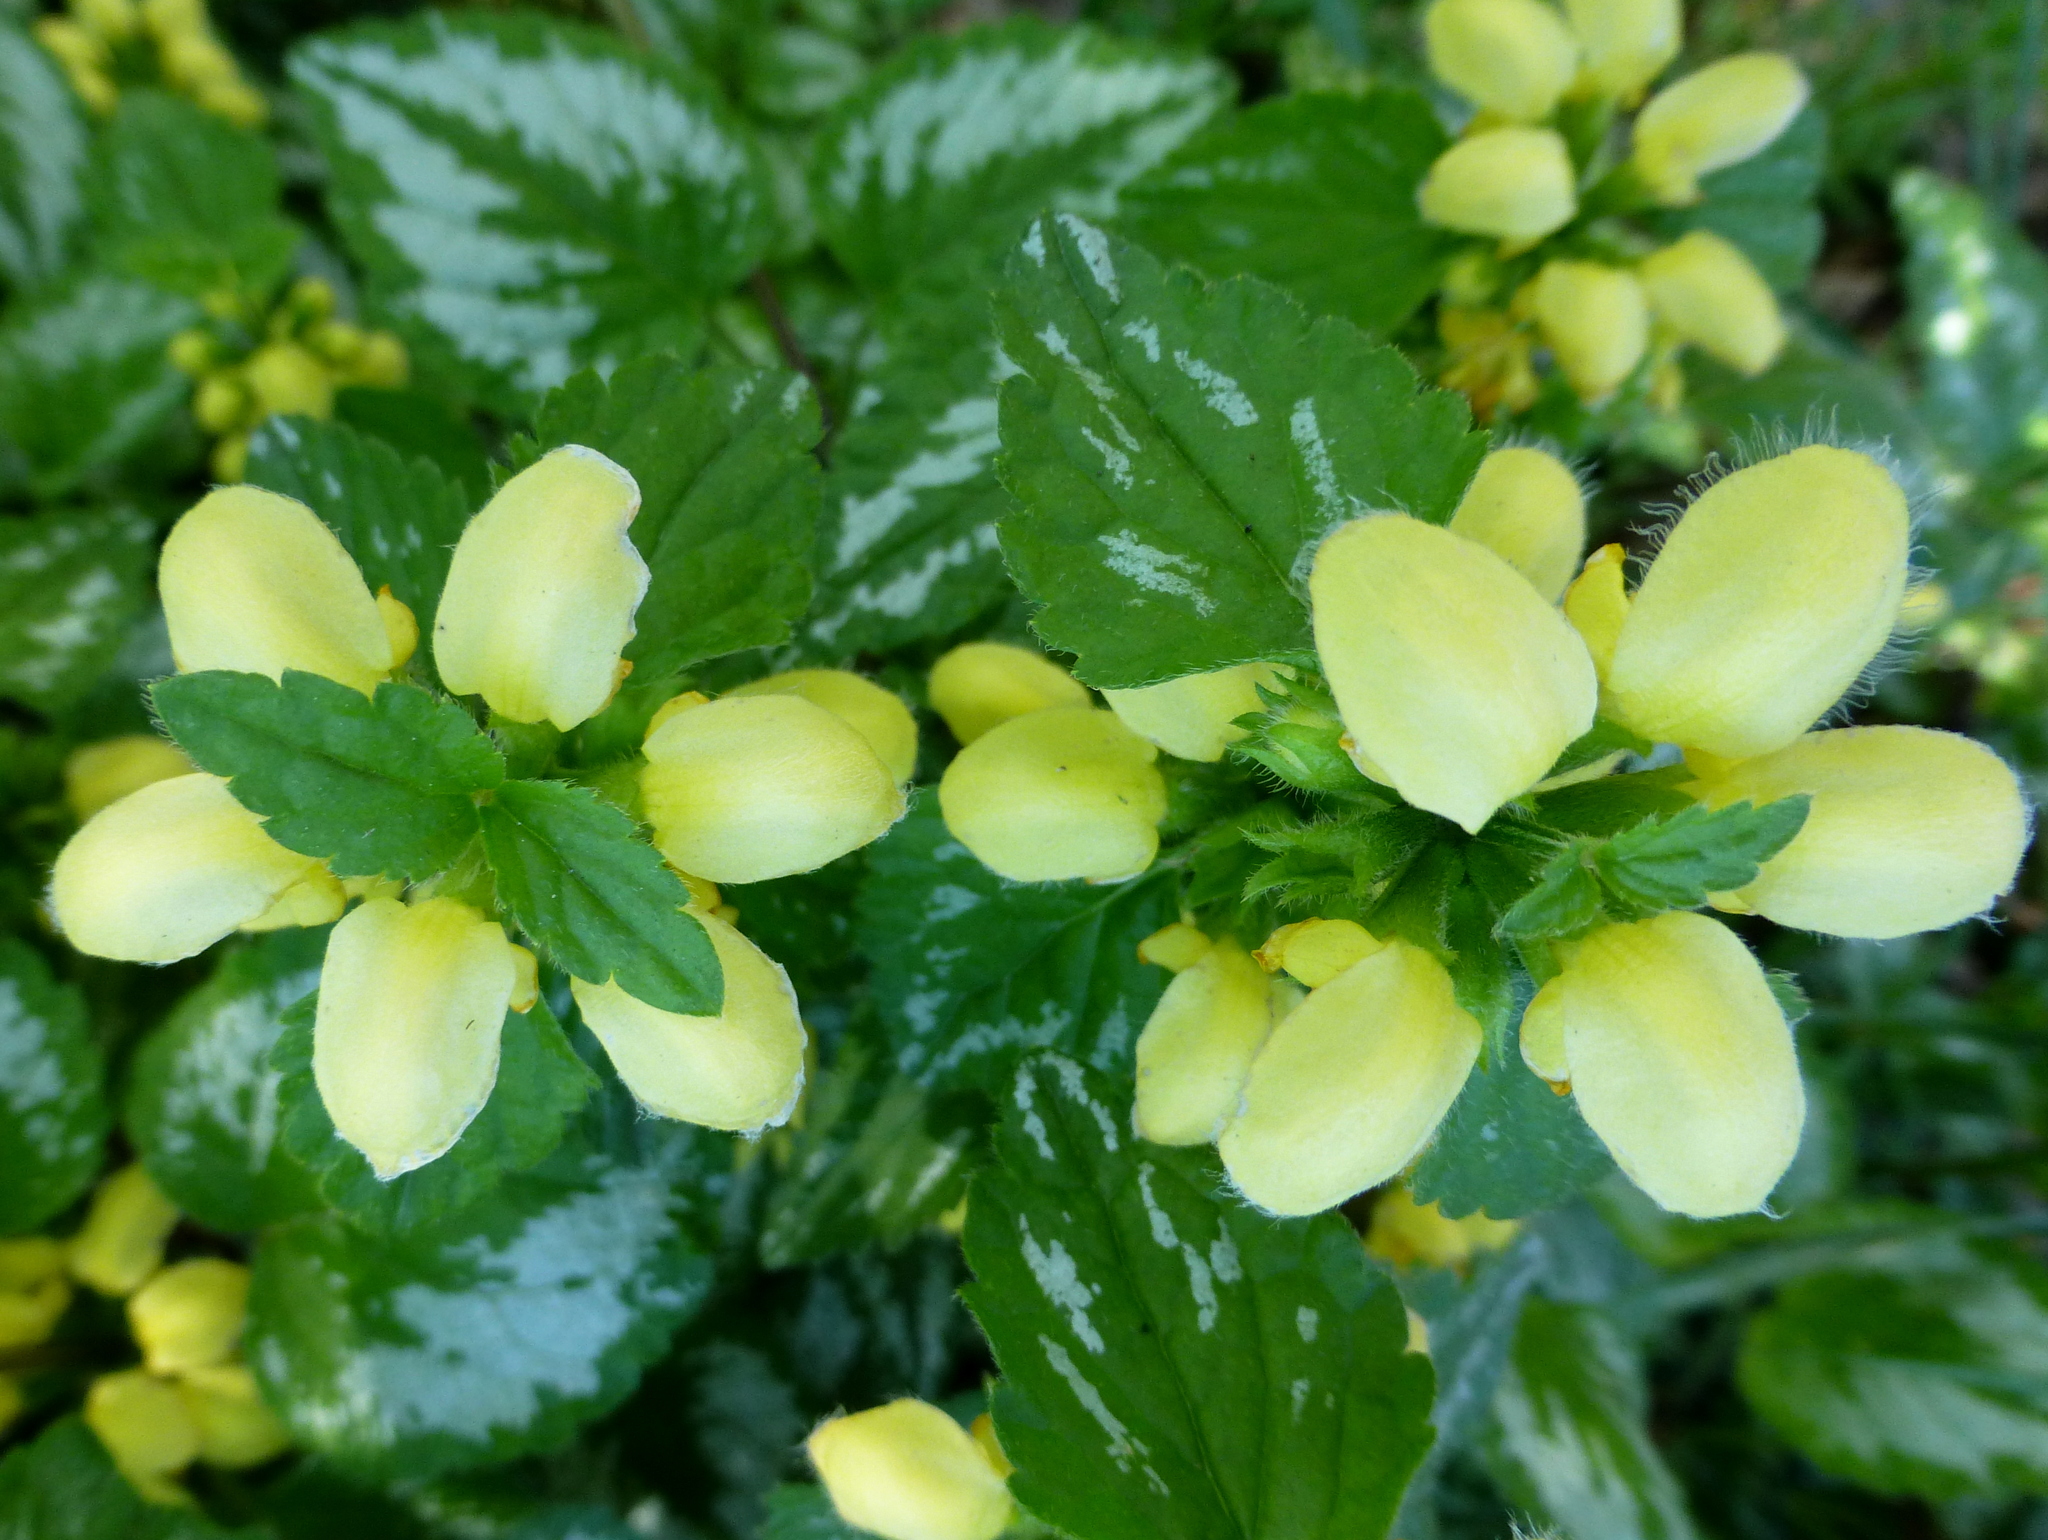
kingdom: Plantae
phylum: Tracheophyta
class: Magnoliopsida
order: Lamiales
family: Lamiaceae
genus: Lamium
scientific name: Lamium galeobdolon
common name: Yellow archangel
